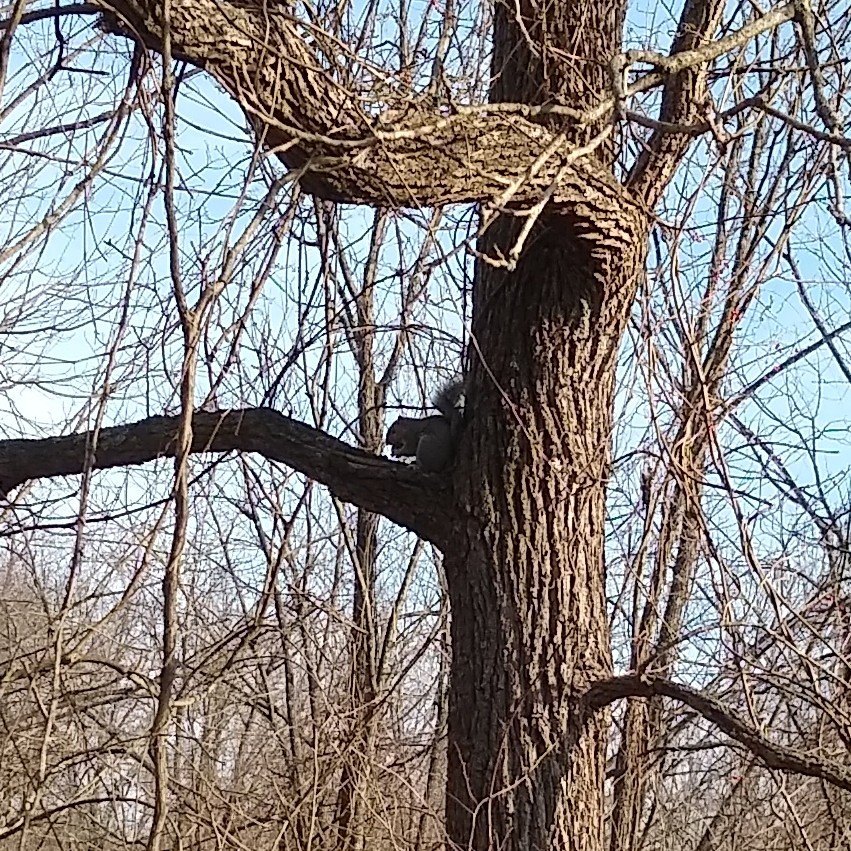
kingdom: Animalia
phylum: Chordata
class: Mammalia
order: Rodentia
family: Sciuridae
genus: Sciurus
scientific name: Sciurus carolinensis
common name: Eastern gray squirrel
